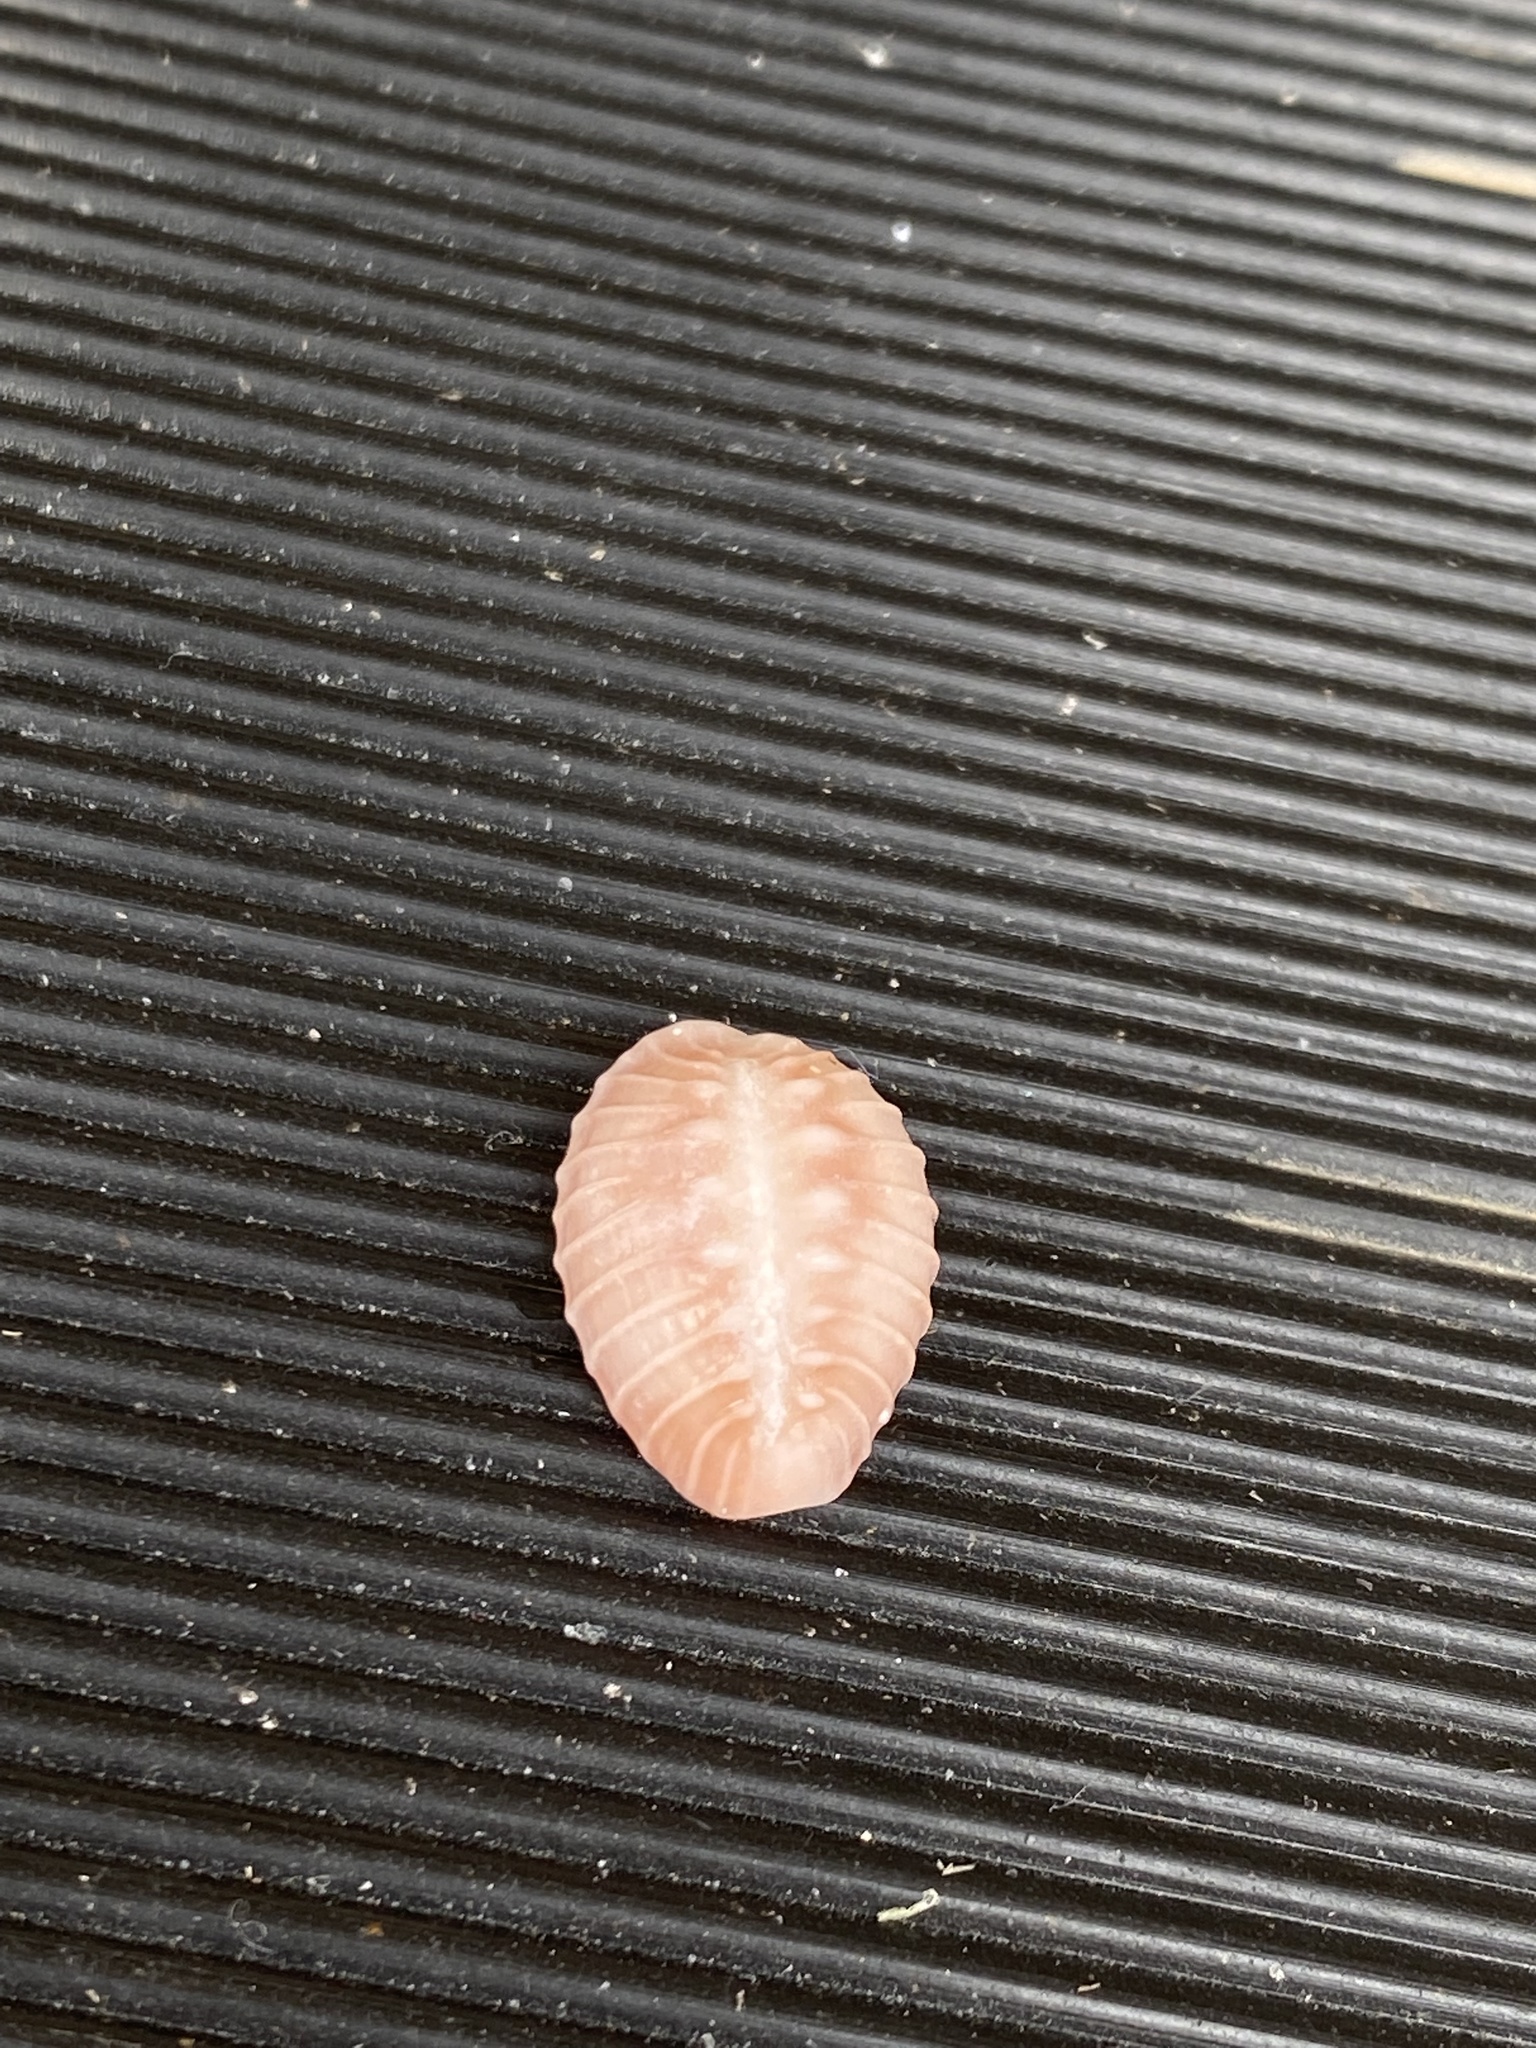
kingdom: Animalia
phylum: Mollusca
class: Gastropoda
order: Littorinimorpha
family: Triviidae
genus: Pusula
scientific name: Pusula solandri
